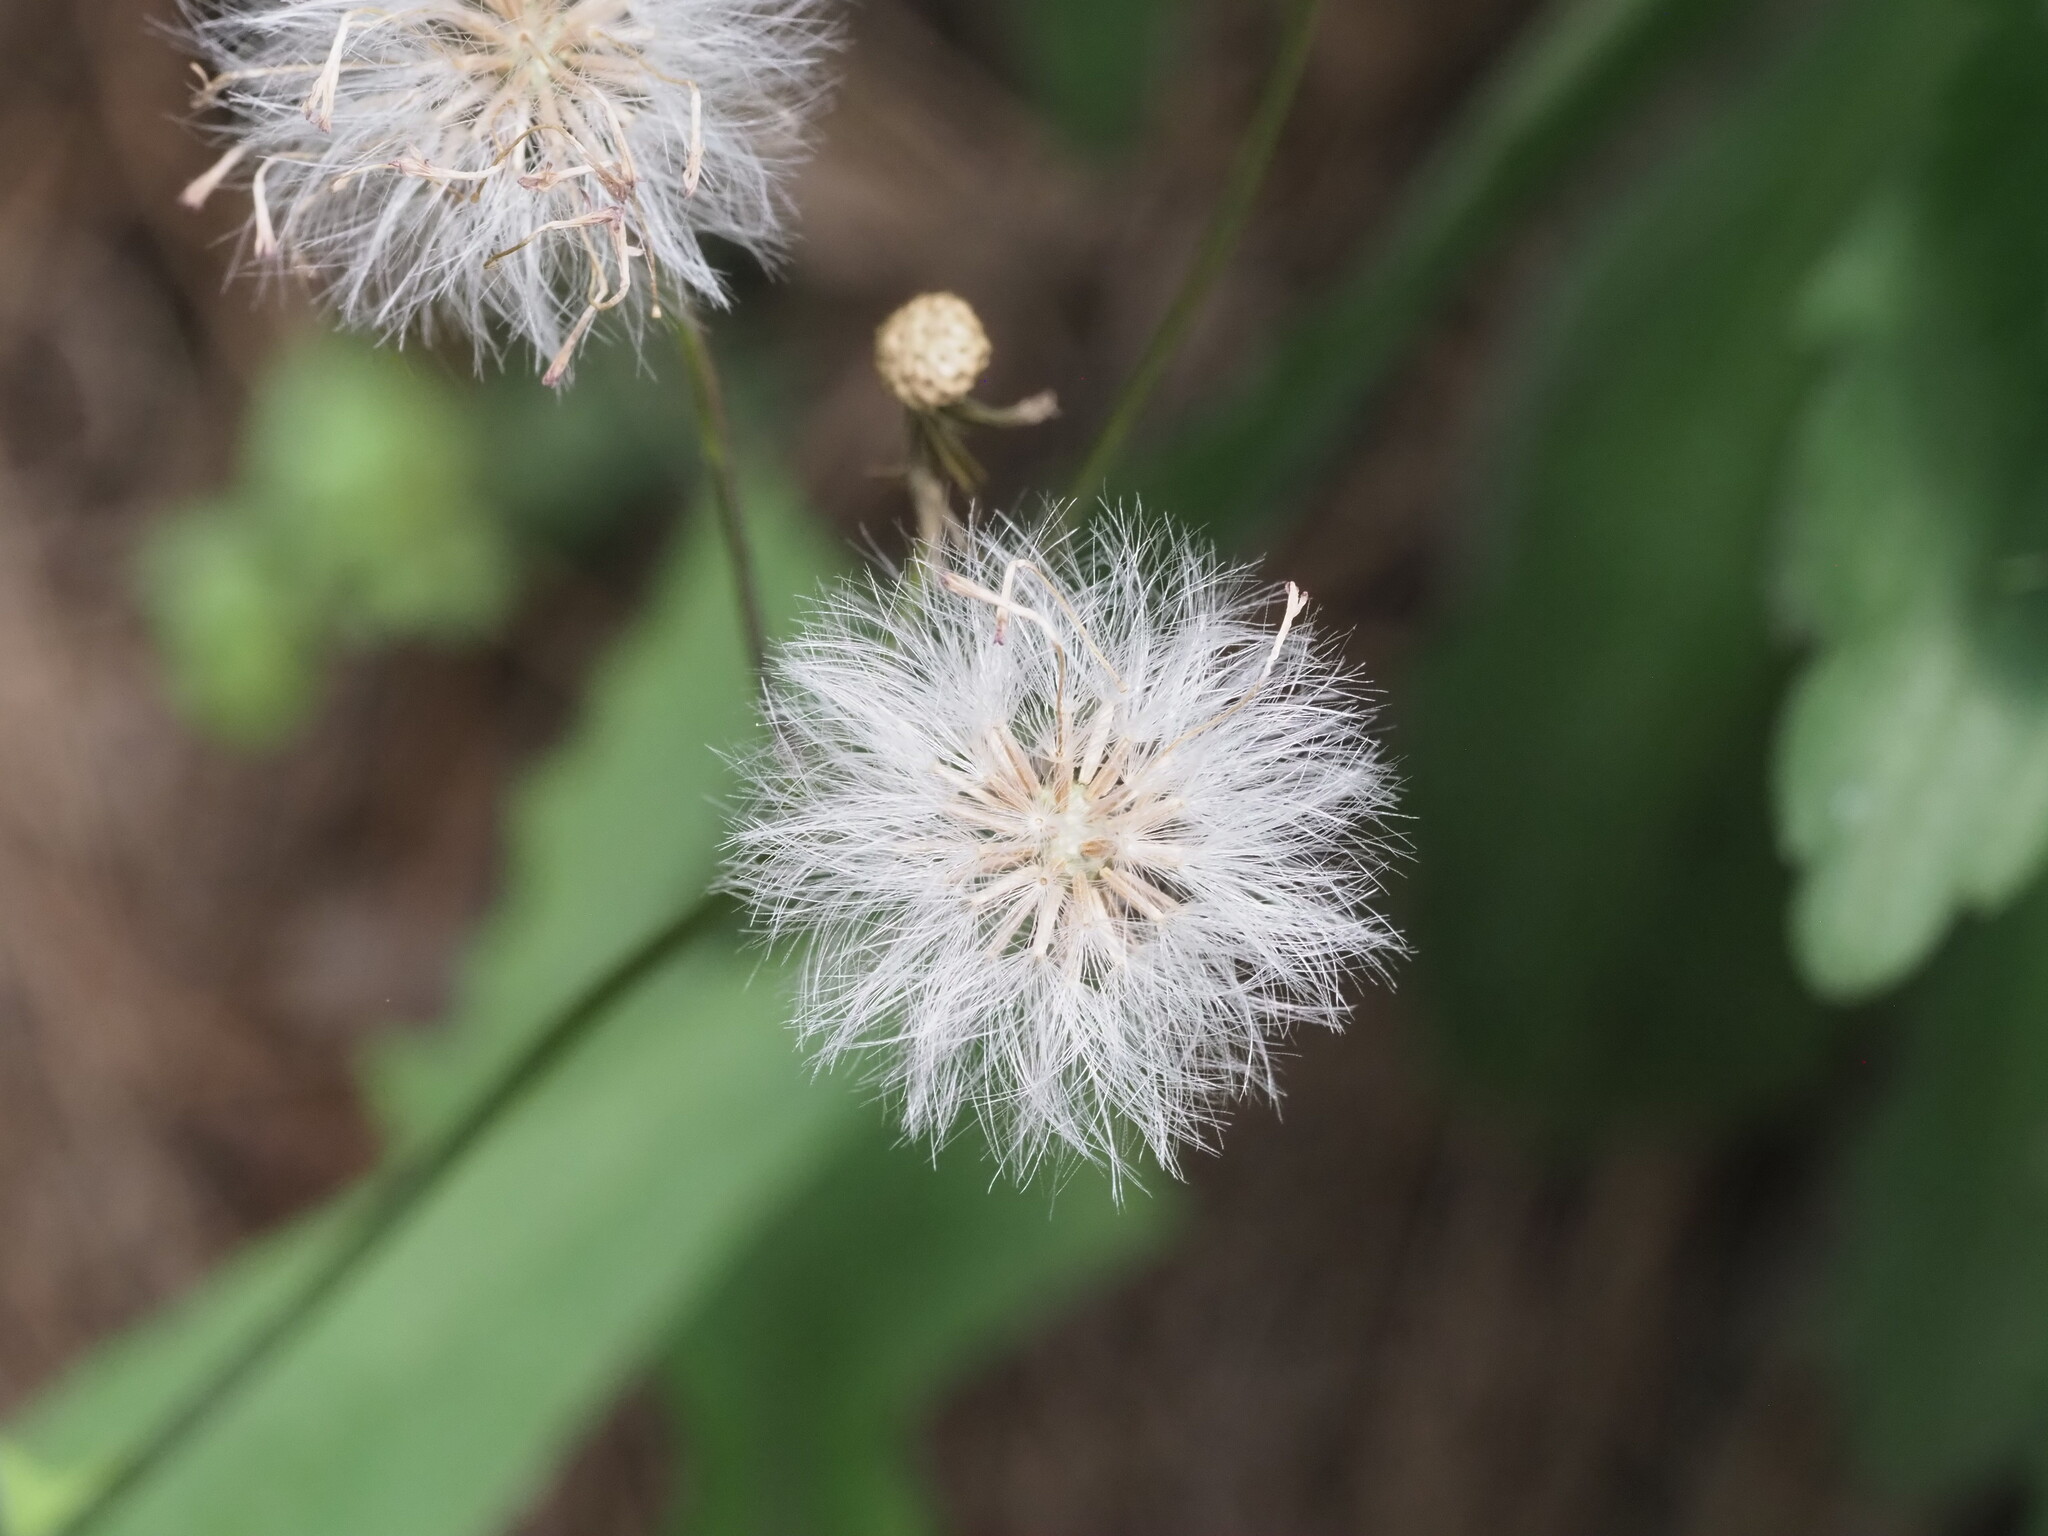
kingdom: Plantae
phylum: Tracheophyta
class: Magnoliopsida
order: Asterales
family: Asteraceae
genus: Emilia
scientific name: Emilia sonchifolia
